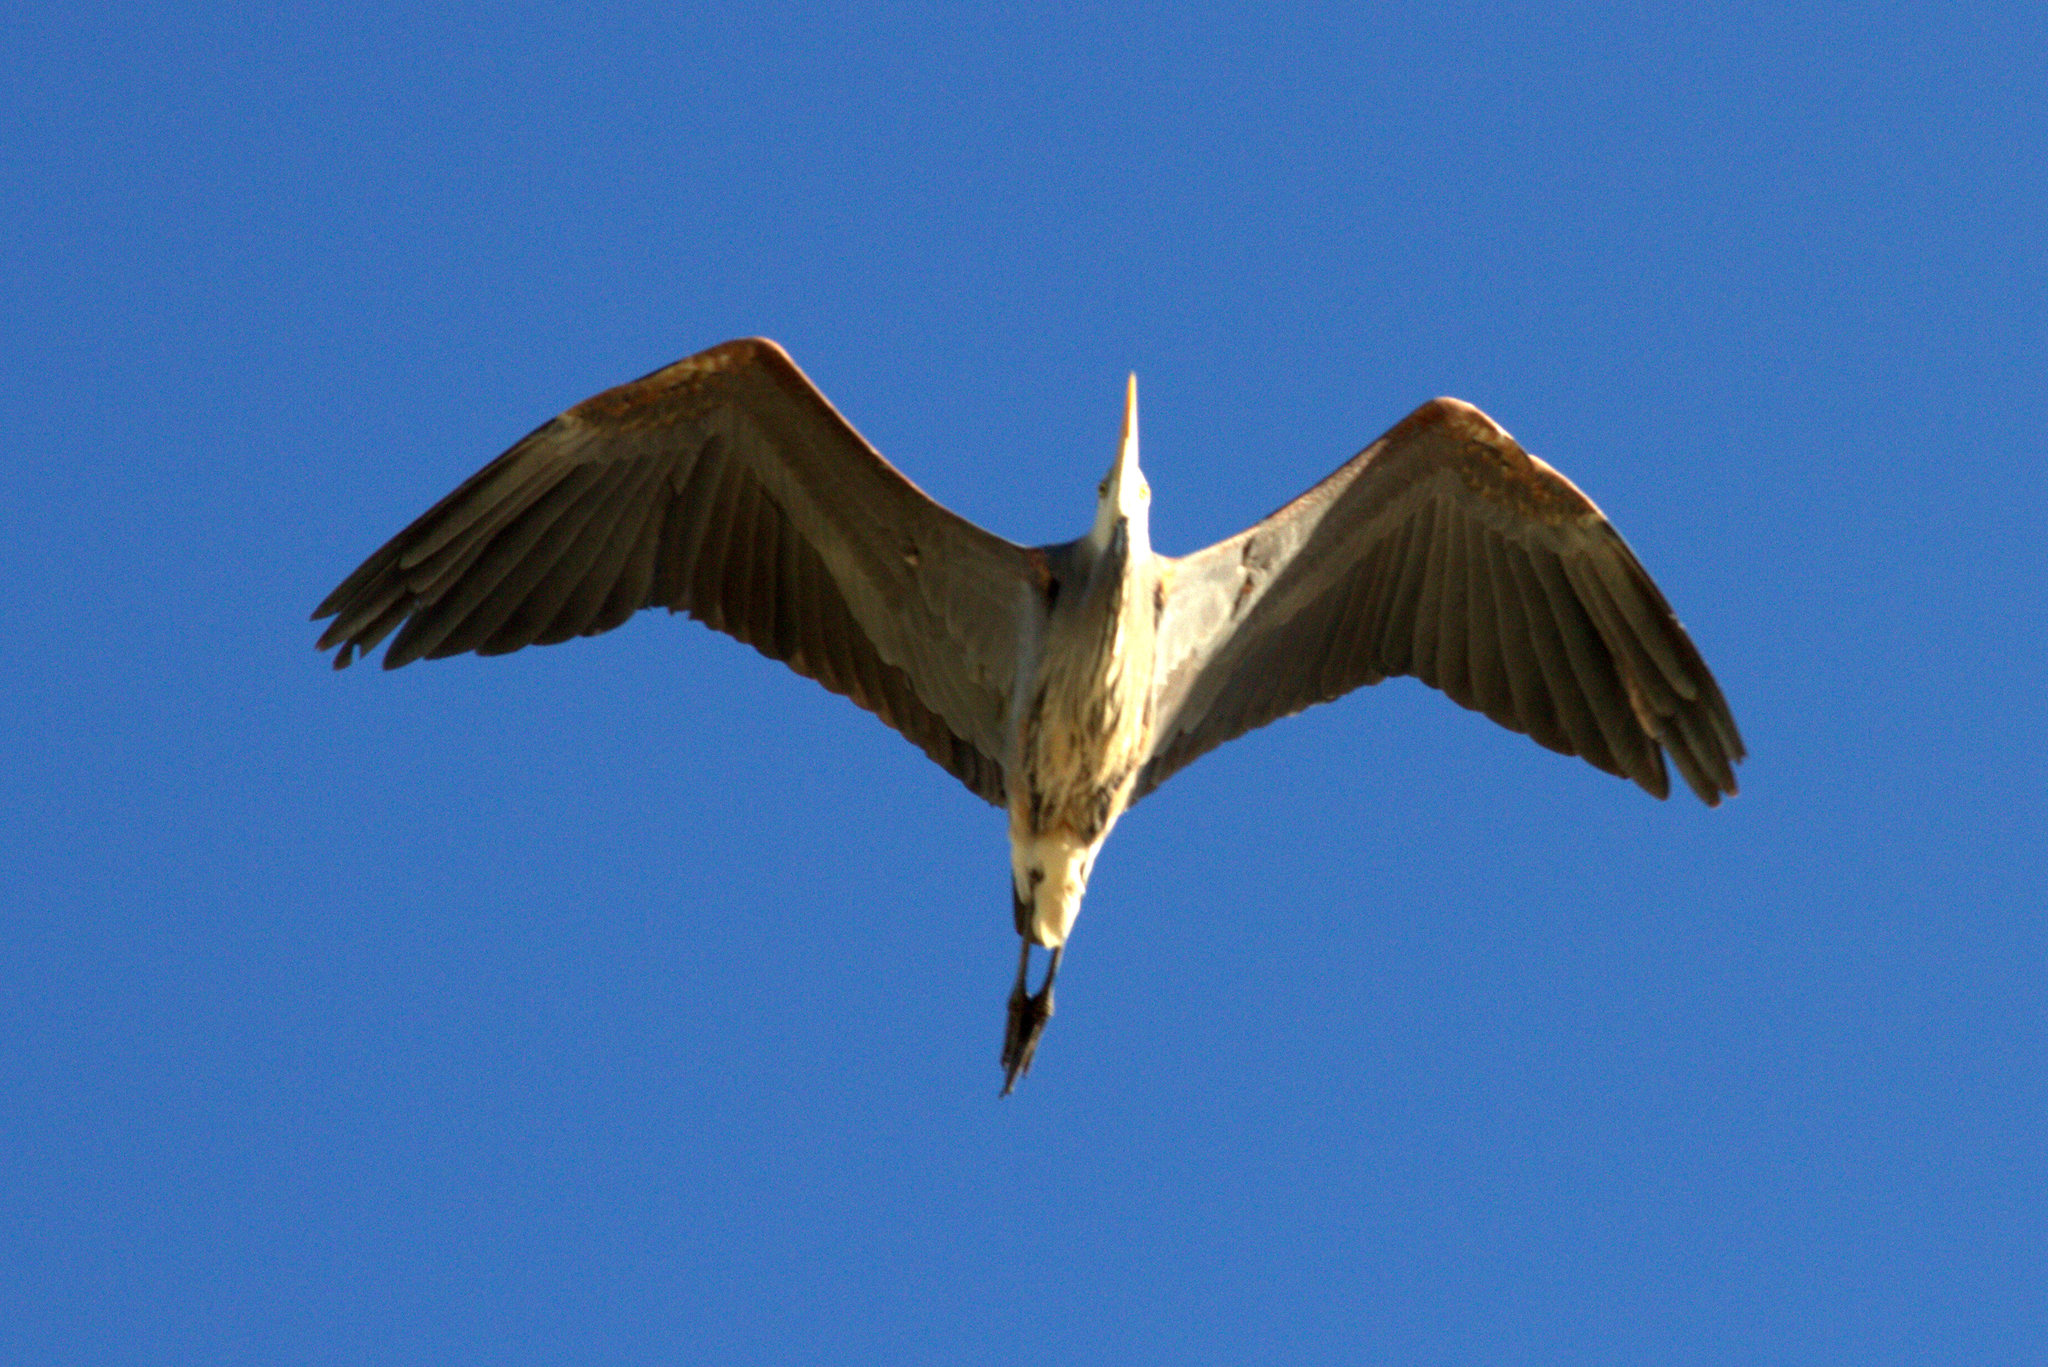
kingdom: Animalia
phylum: Chordata
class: Aves
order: Pelecaniformes
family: Ardeidae
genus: Ardea
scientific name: Ardea herodias
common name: Great blue heron
